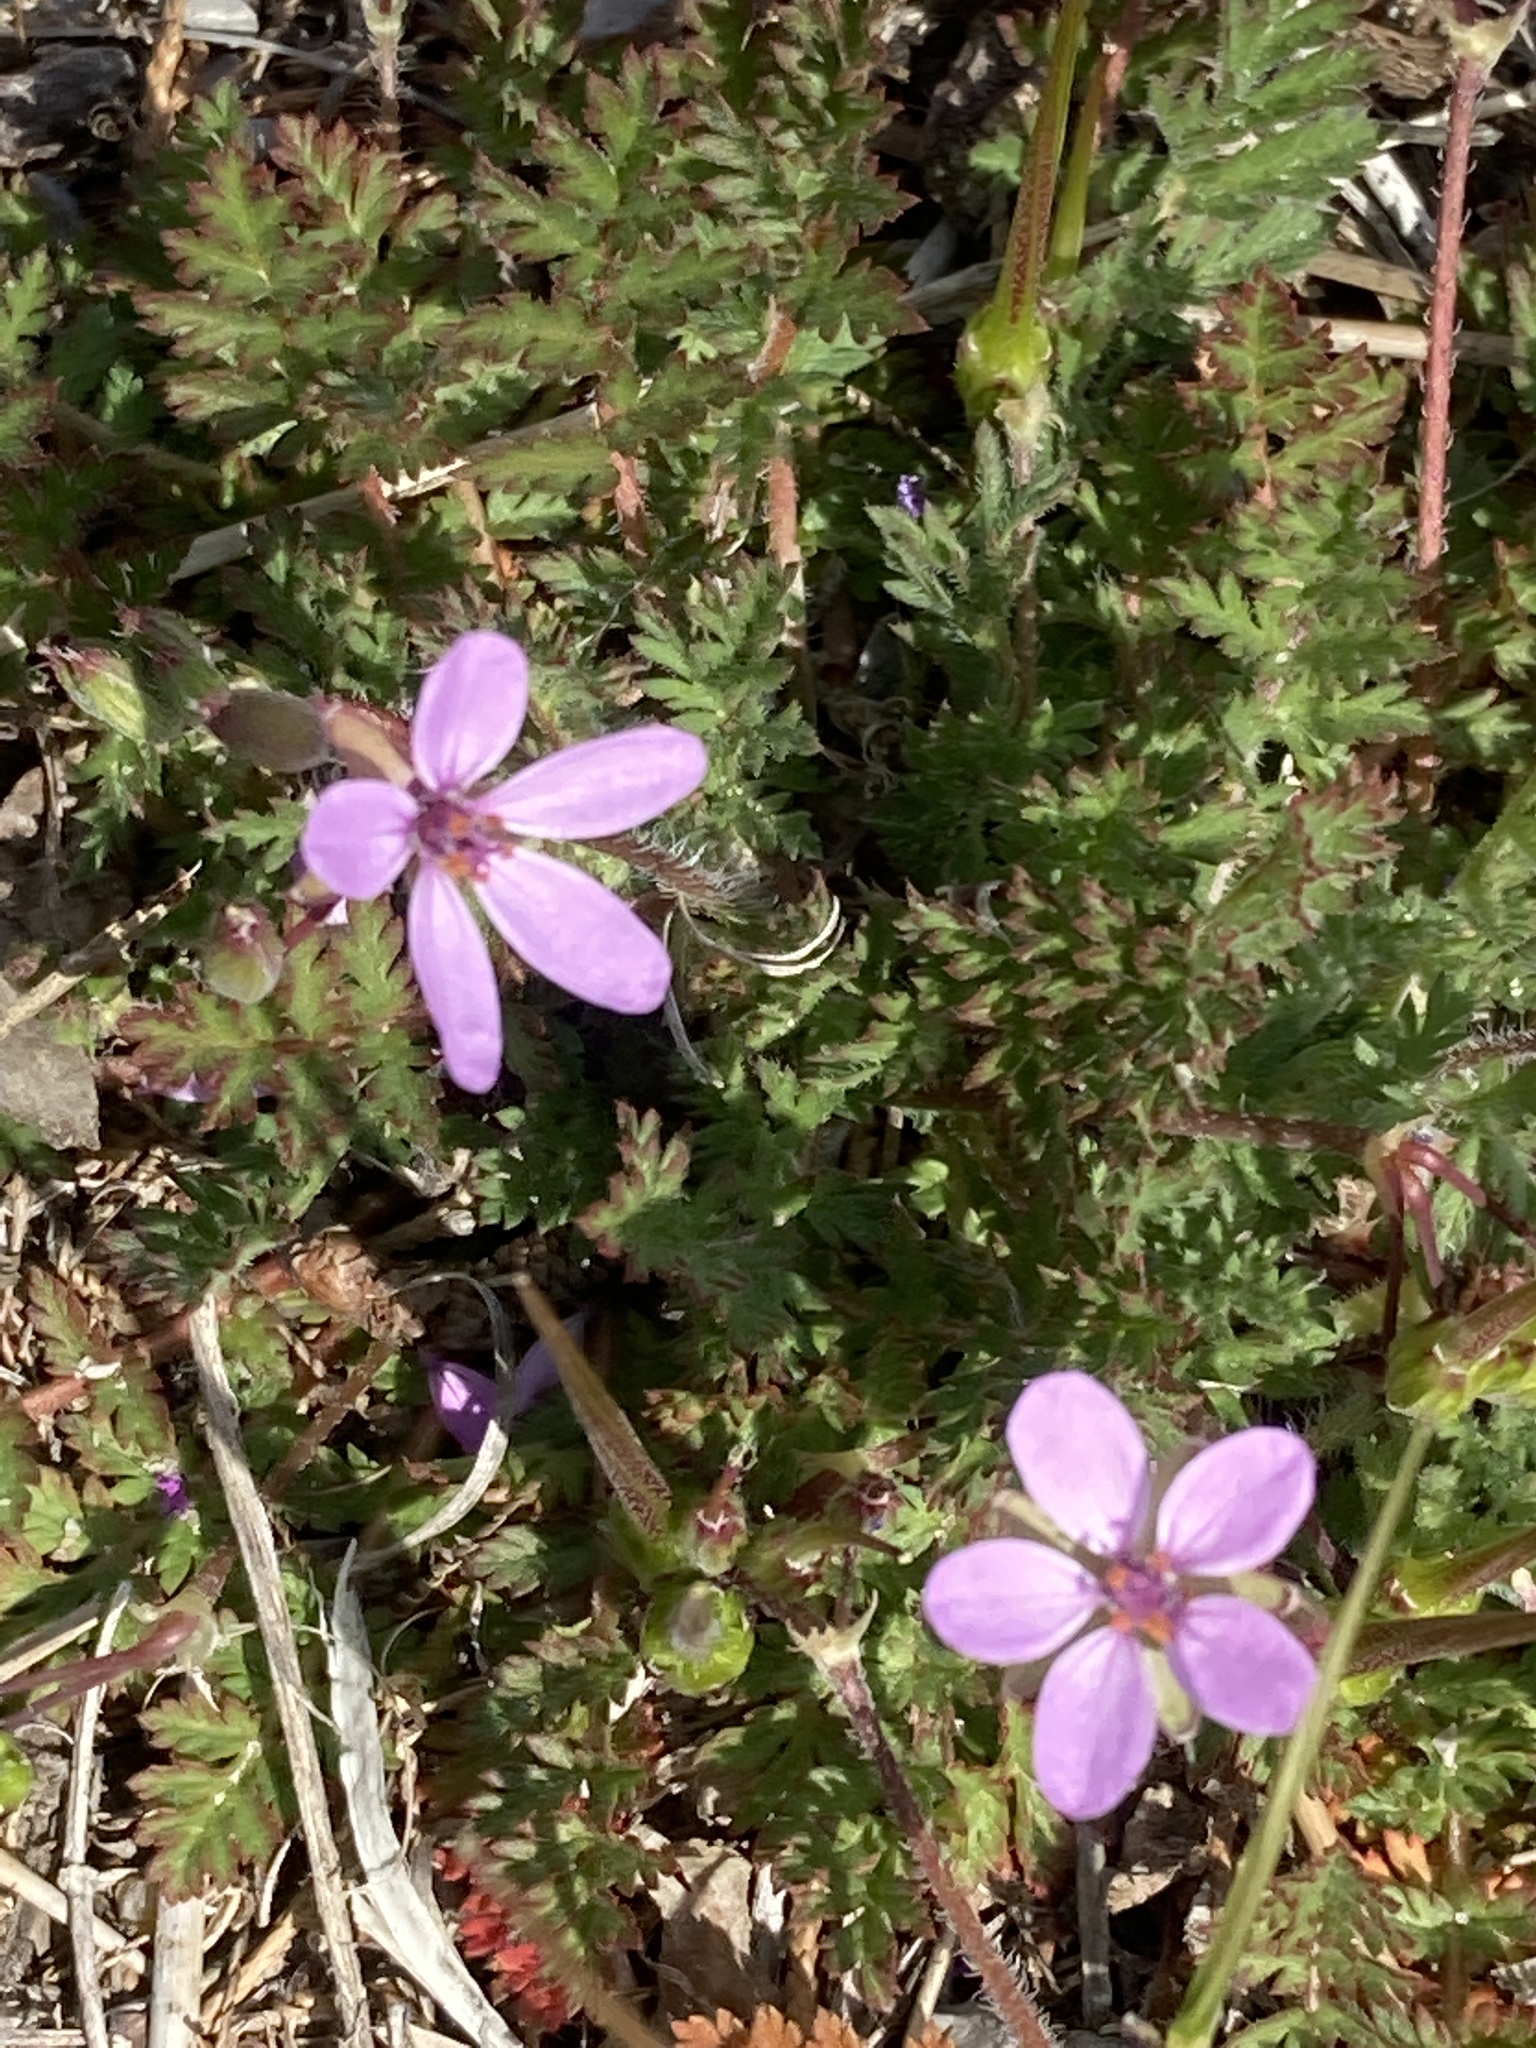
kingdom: Plantae
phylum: Tracheophyta
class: Magnoliopsida
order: Geraniales
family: Geraniaceae
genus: Erodium
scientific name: Erodium cicutarium
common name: Common stork's-bill
